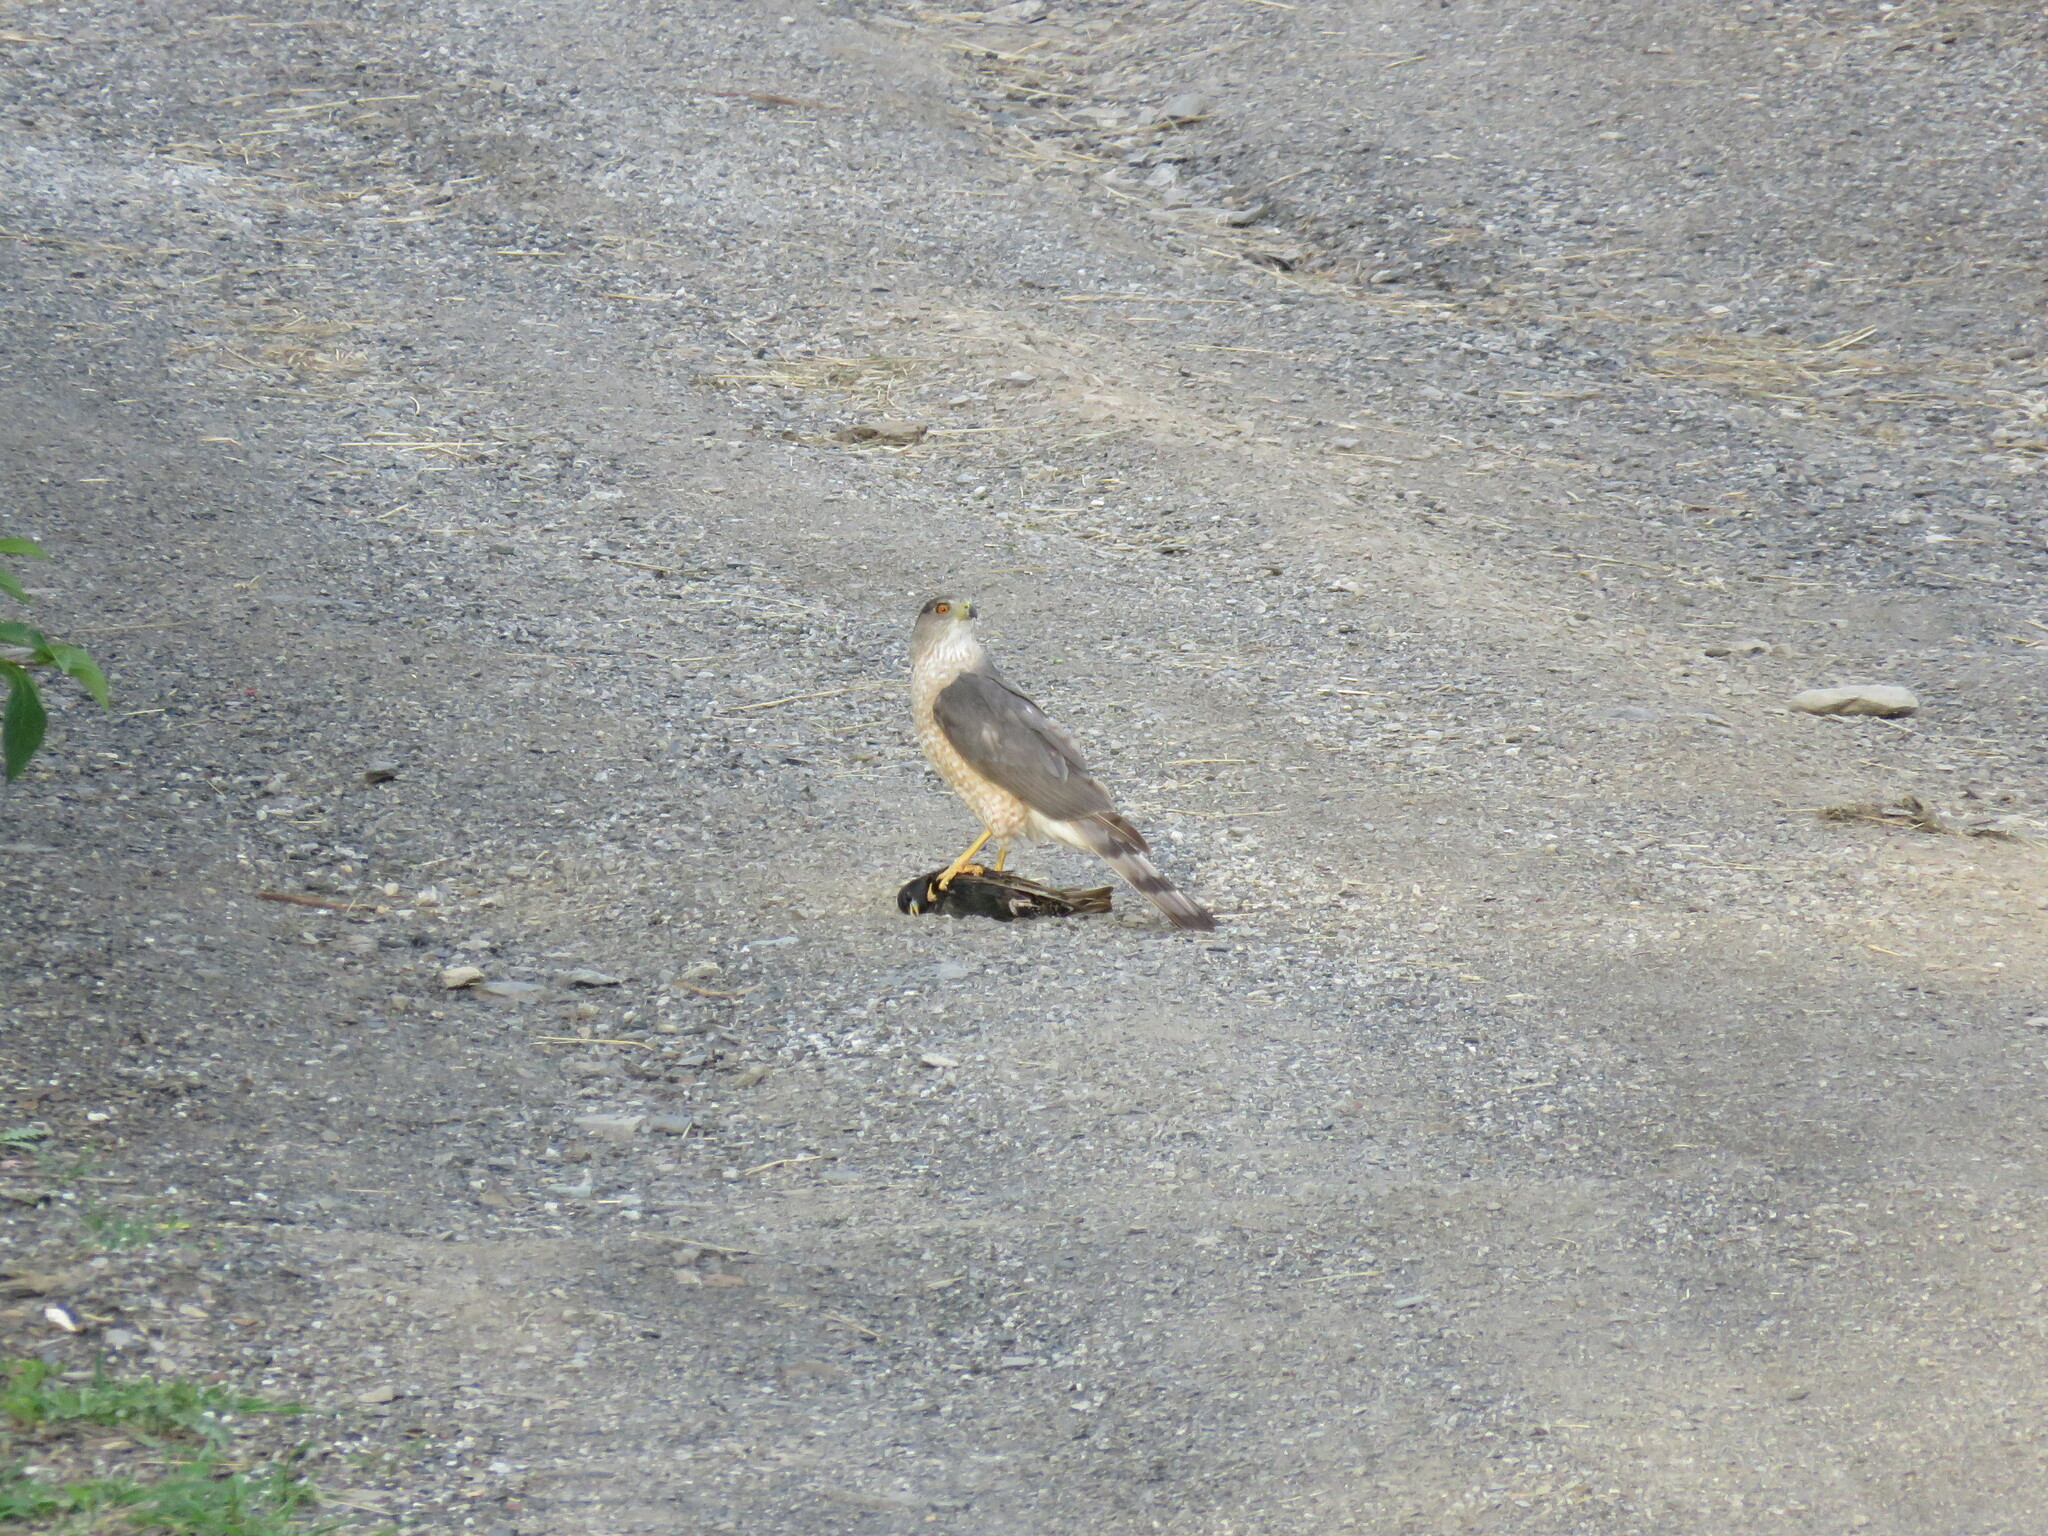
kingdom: Animalia
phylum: Chordata
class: Aves
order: Accipitriformes
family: Accipitridae
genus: Accipiter
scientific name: Accipiter cooperii
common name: Cooper's hawk
